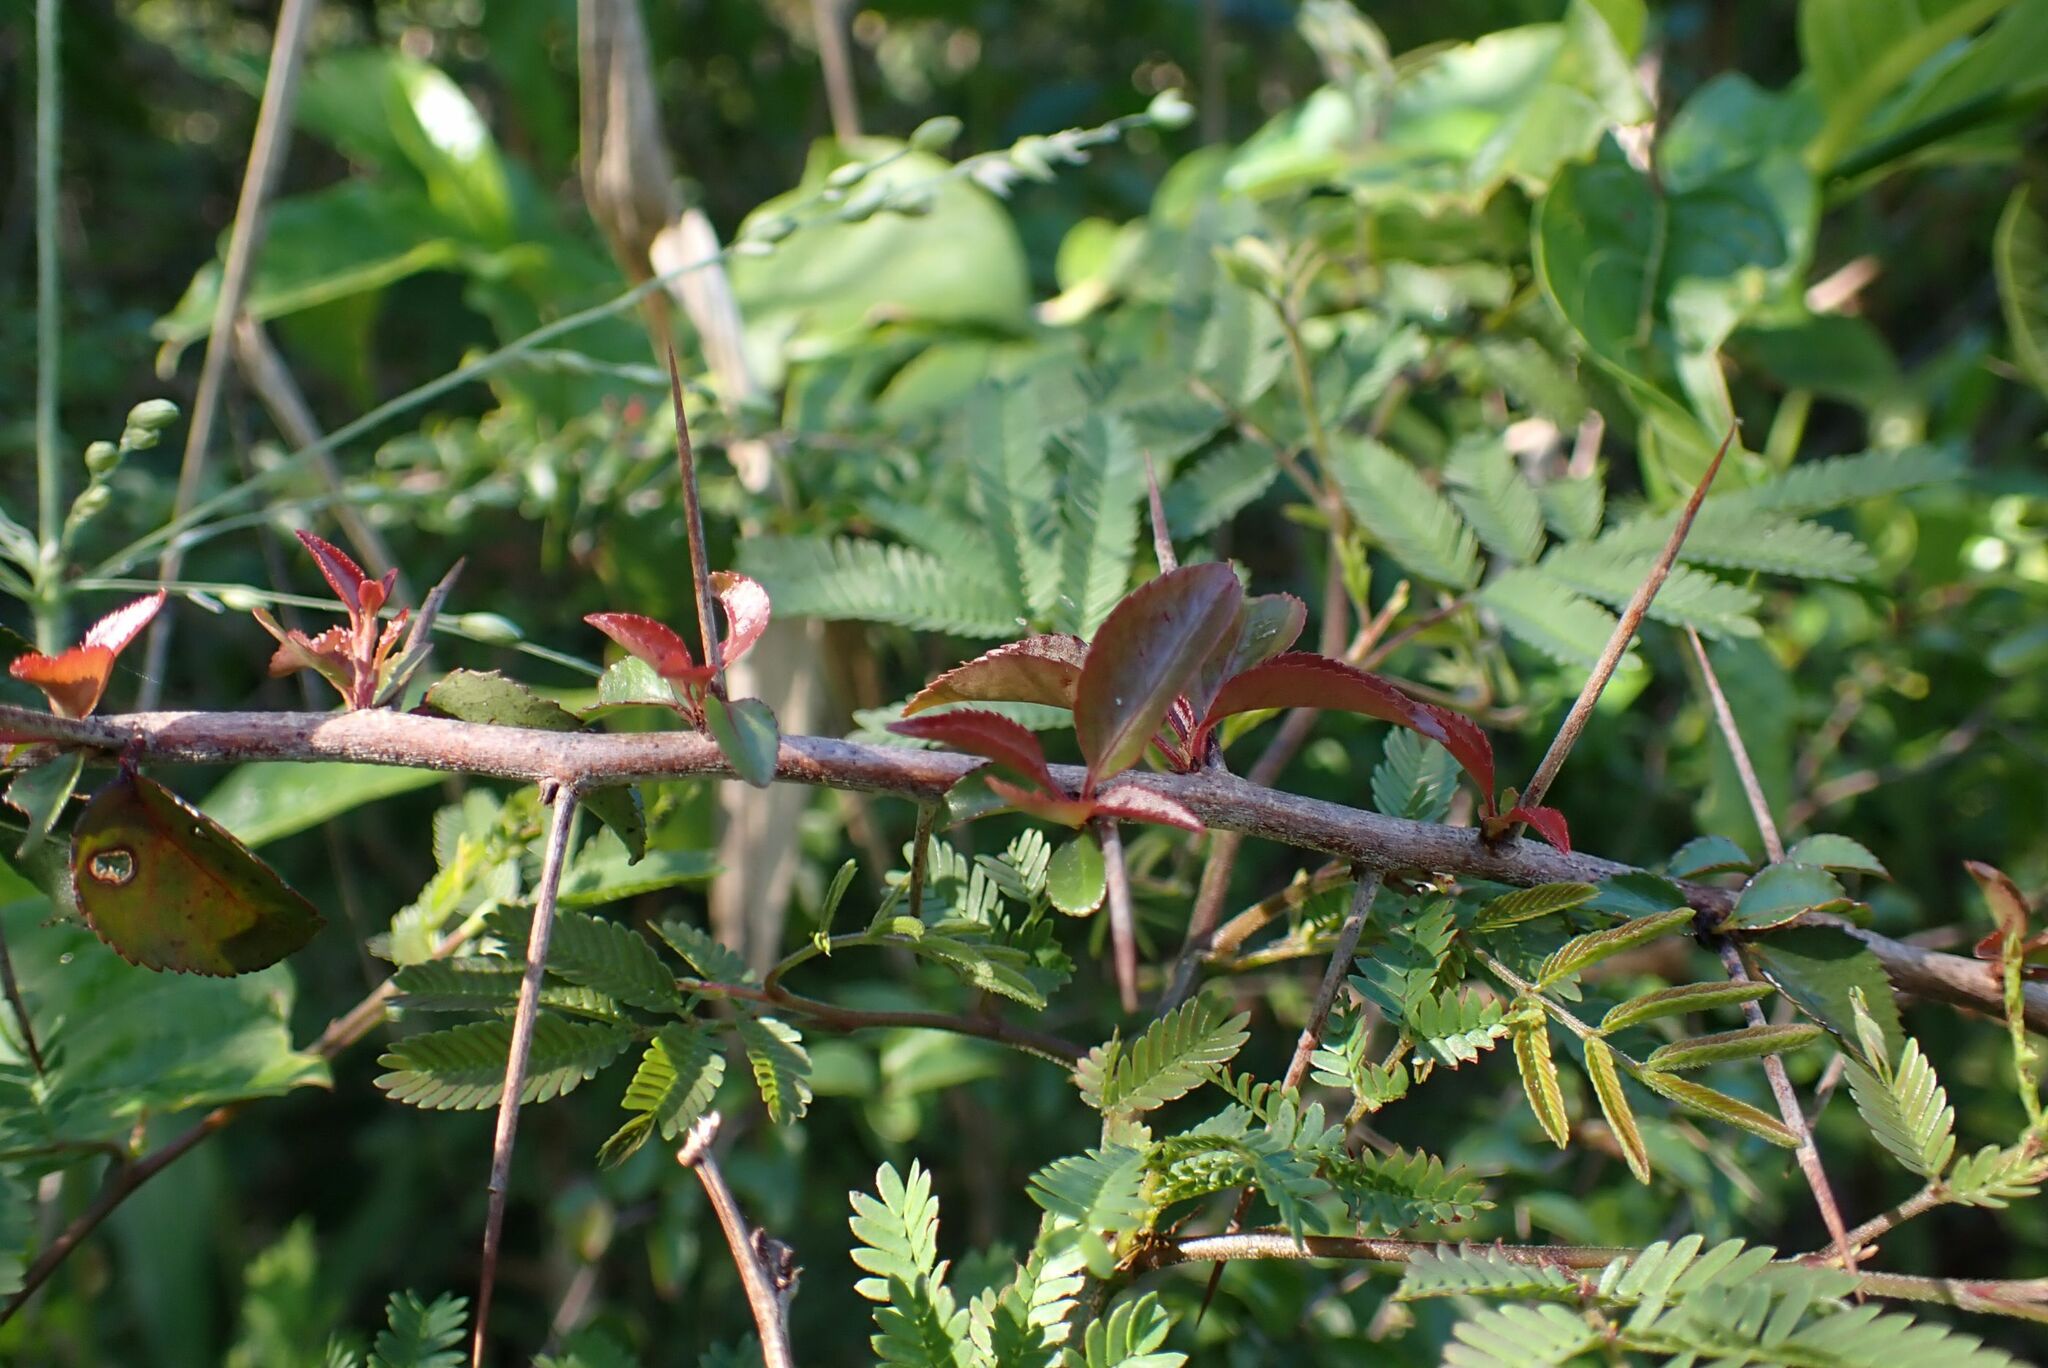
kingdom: Plantae
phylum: Tracheophyta
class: Magnoliopsida
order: Celastrales
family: Celastraceae
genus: Gymnosporia
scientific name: Gymnosporia rubra
